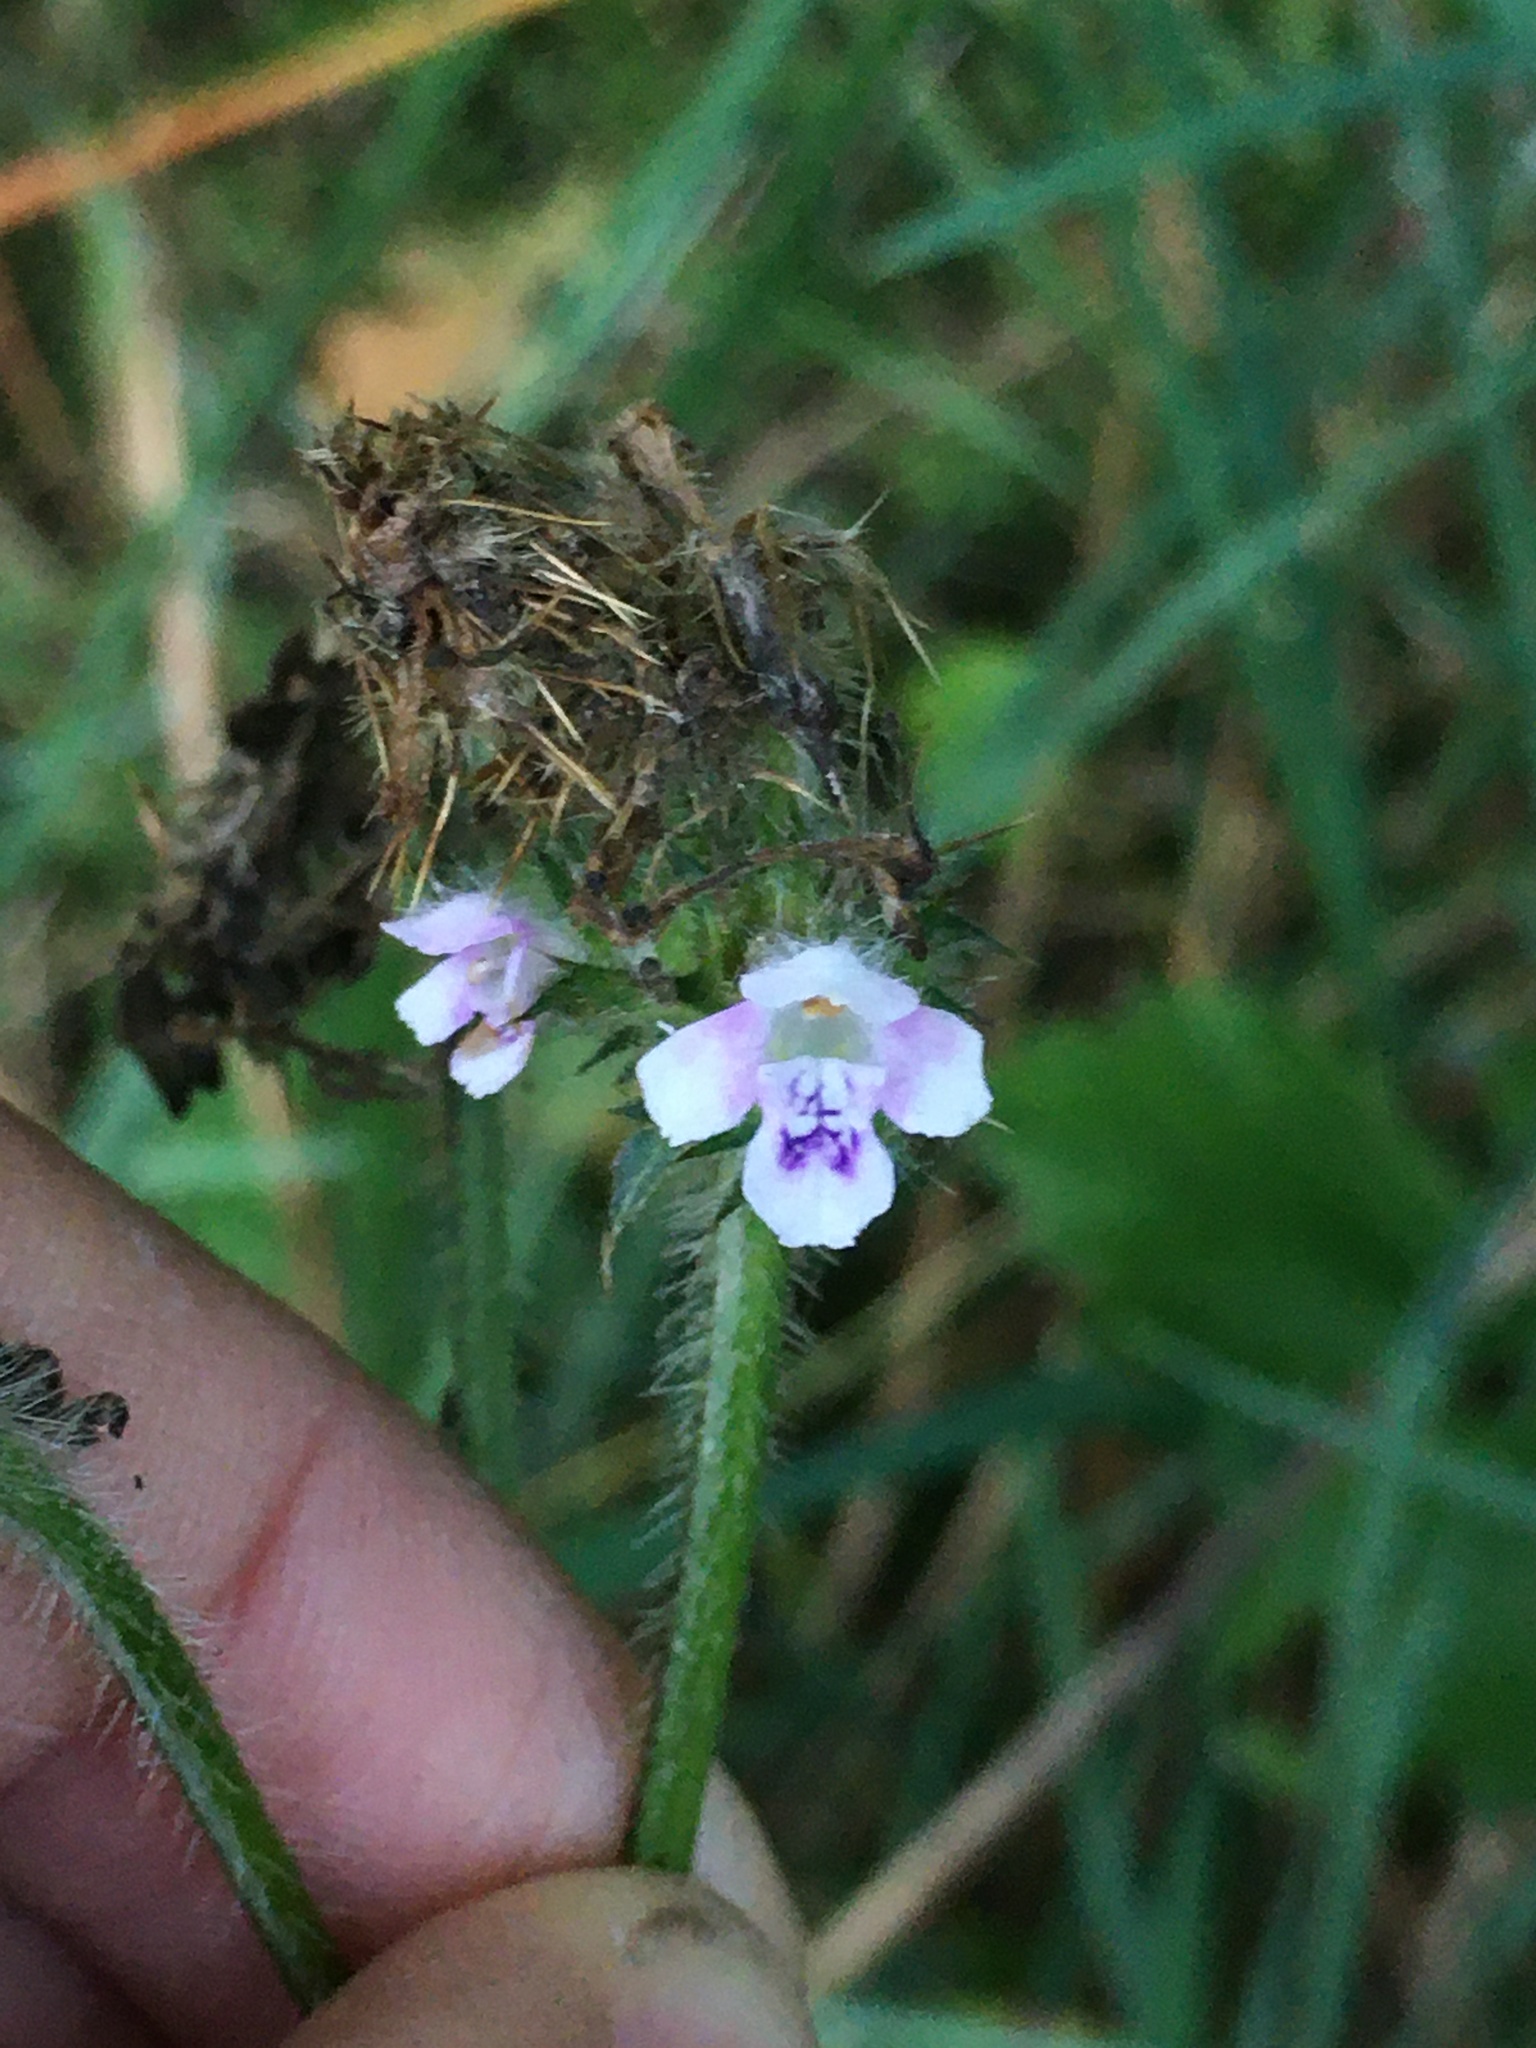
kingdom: Plantae
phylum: Tracheophyta
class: Magnoliopsida
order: Lamiales
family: Lamiaceae
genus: Galeopsis
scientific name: Galeopsis tetrahit
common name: Common hemp-nettle
